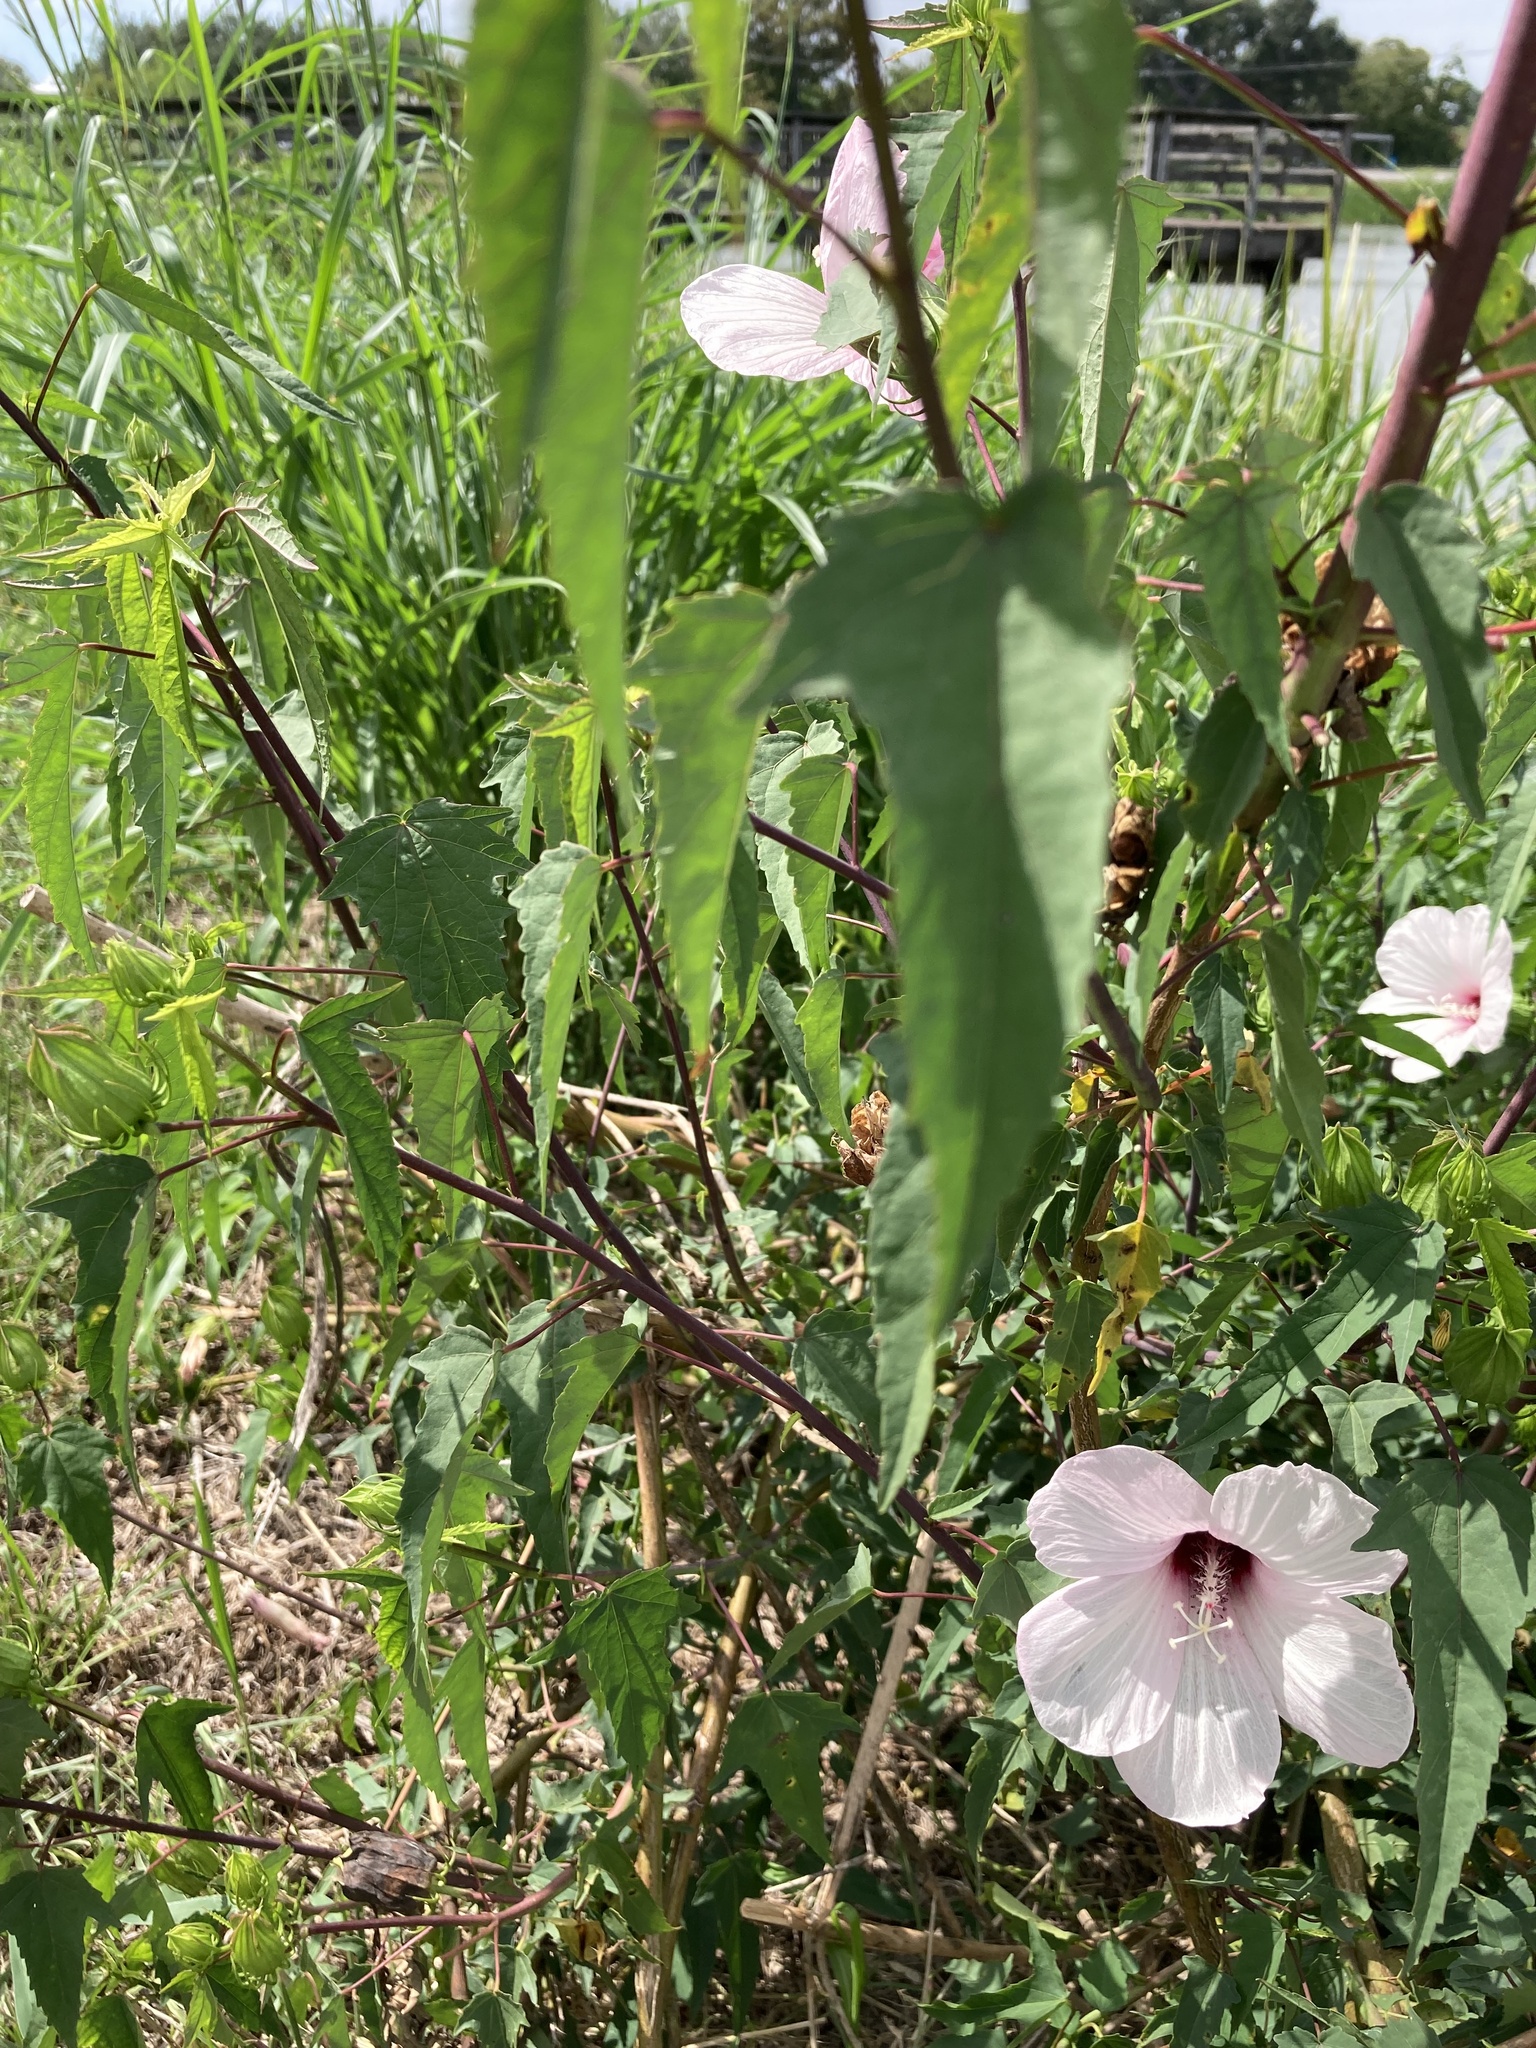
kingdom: Plantae
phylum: Tracheophyta
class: Magnoliopsida
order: Malvales
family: Malvaceae
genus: Hibiscus
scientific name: Hibiscus laevis
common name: Scarlet rose-mallow
